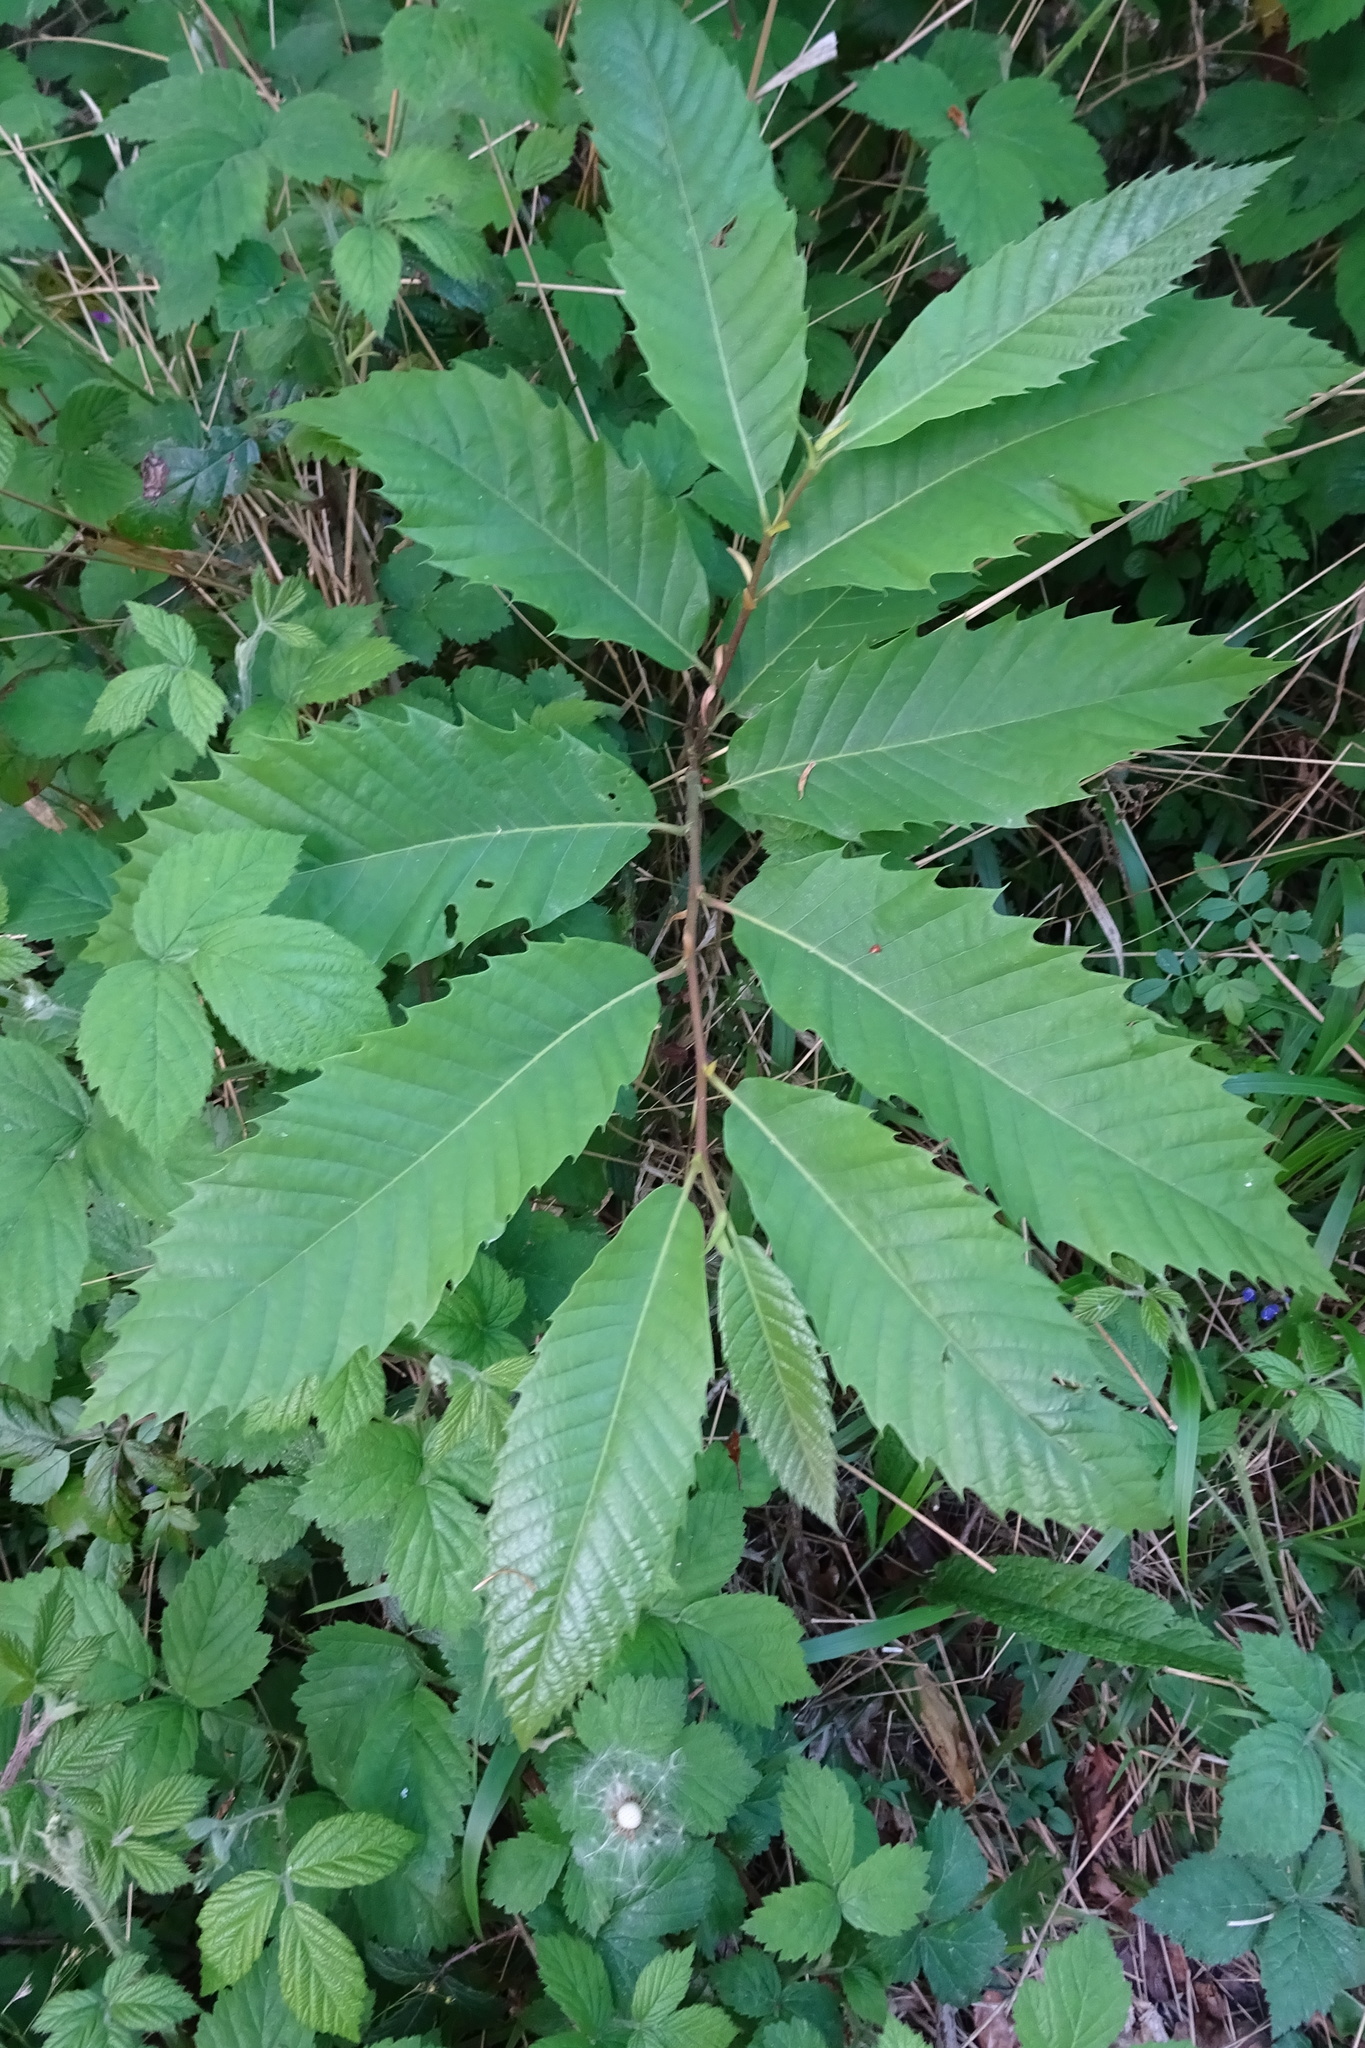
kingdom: Plantae
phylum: Tracheophyta
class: Magnoliopsida
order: Fagales
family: Fagaceae
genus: Castanea
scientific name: Castanea sativa
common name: Sweet chestnut
